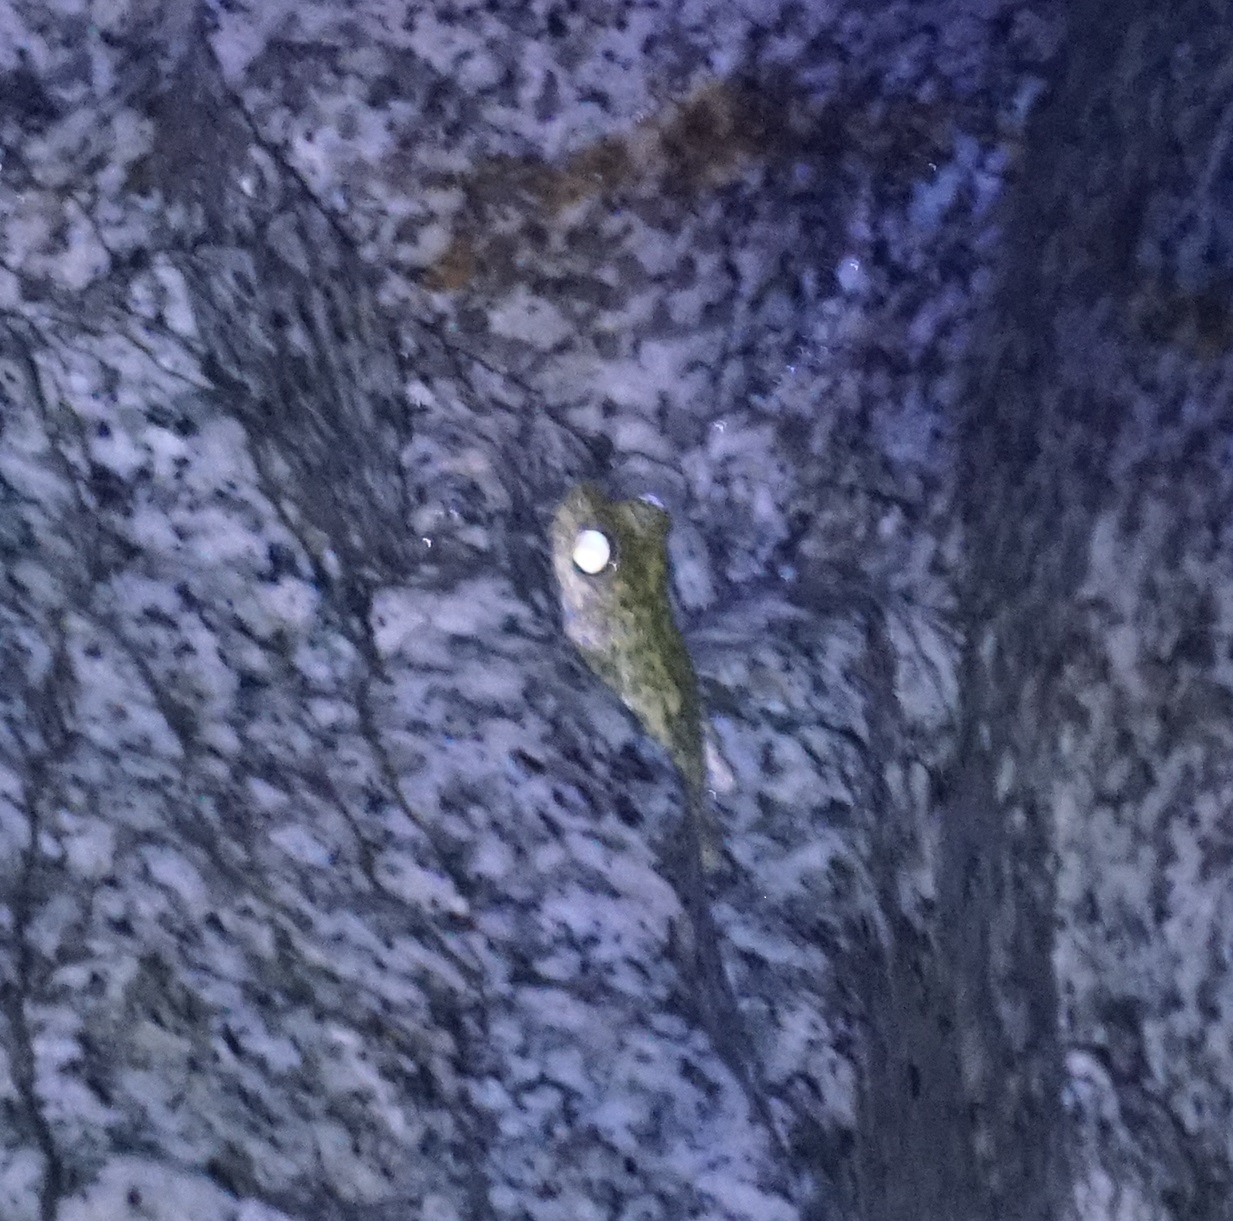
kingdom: Animalia
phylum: Chordata
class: Amphibia
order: Anura
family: Pelodryadidae
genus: Ranoidea
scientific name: Ranoidea nannotis
